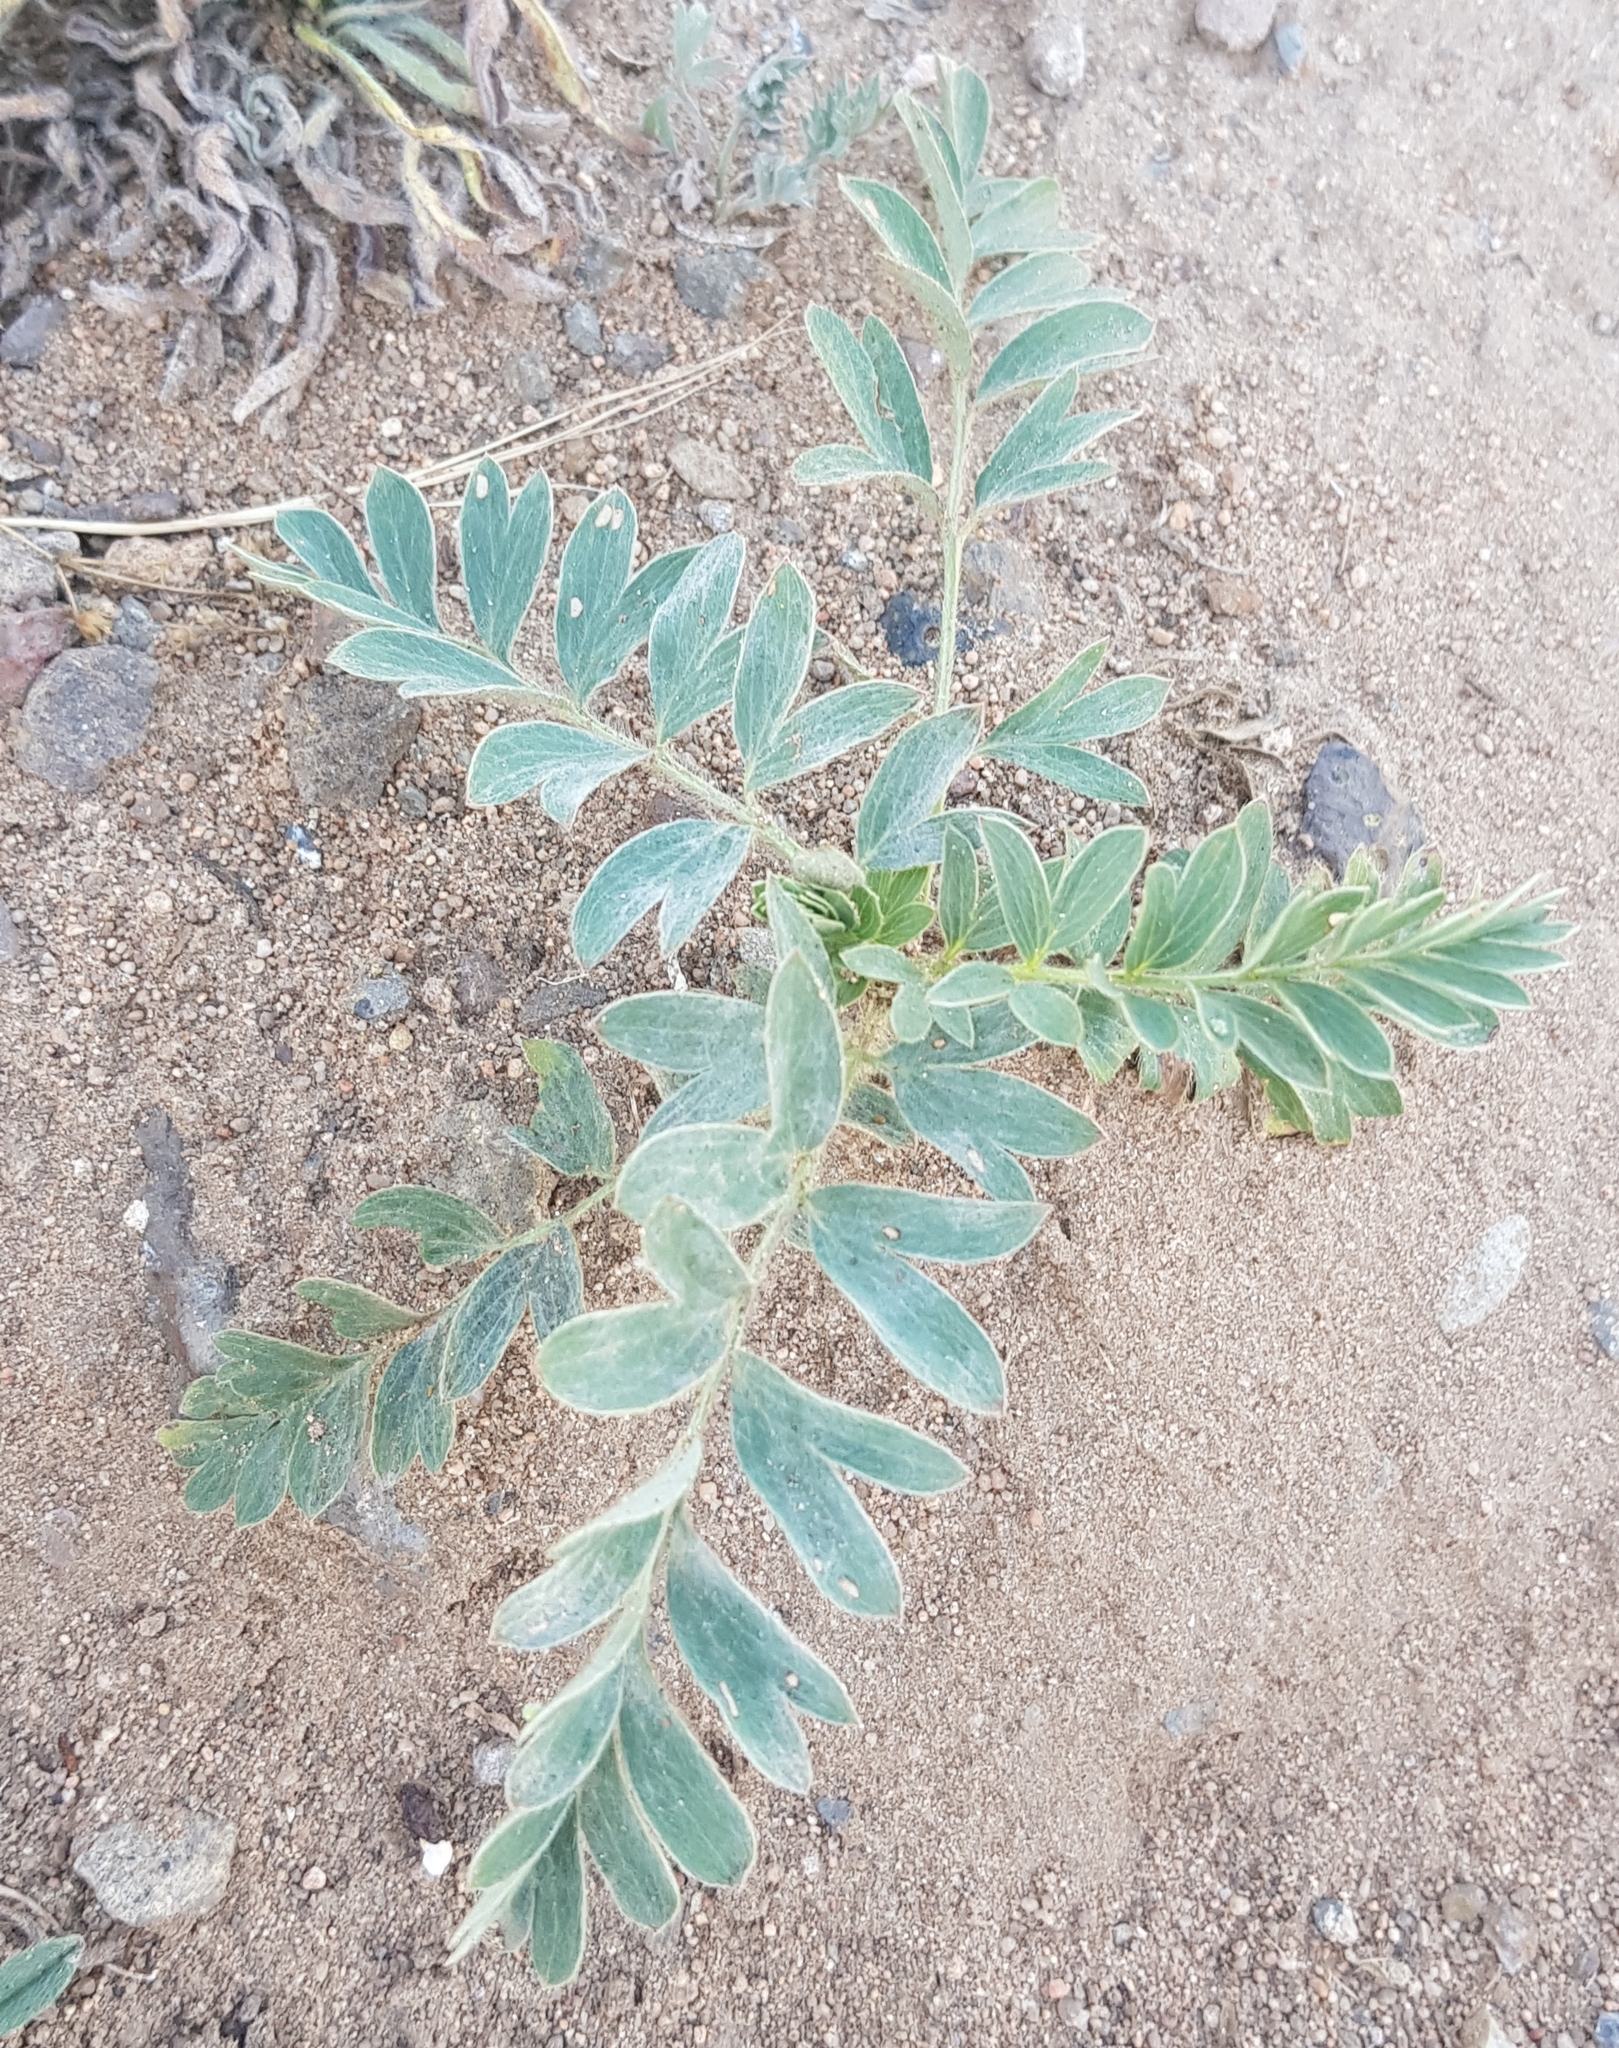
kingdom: Plantae
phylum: Tracheophyta
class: Magnoliopsida
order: Rosales
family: Rosaceae
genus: Sibbaldianthe
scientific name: Sibbaldianthe bifurca
